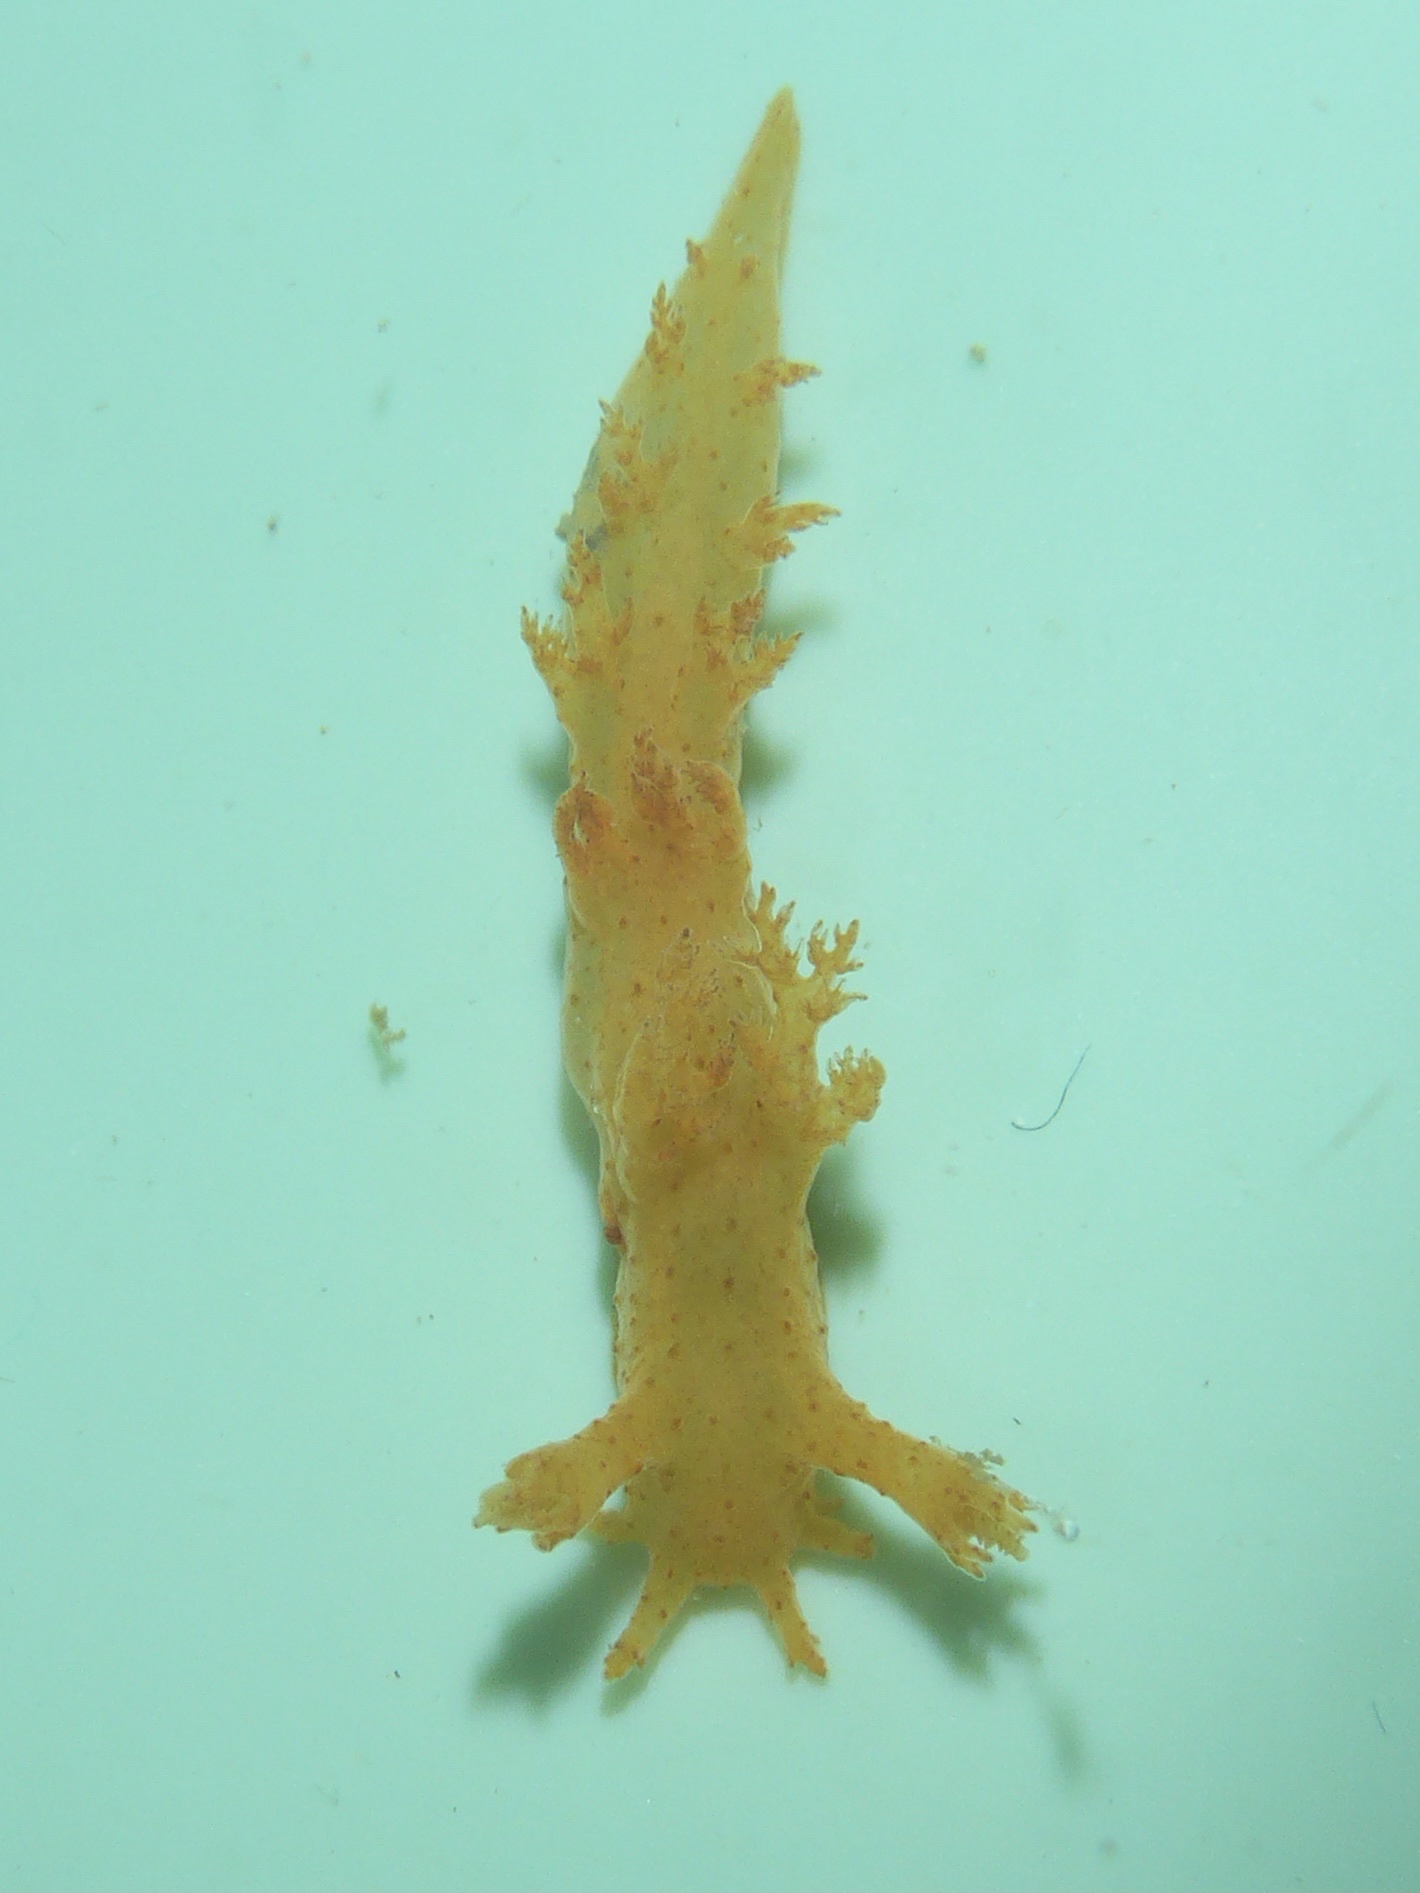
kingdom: Animalia
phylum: Mollusca
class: Gastropoda
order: Nudibranchia
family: Dendronotidae
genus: Dendronotus
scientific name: Dendronotus subramosus
